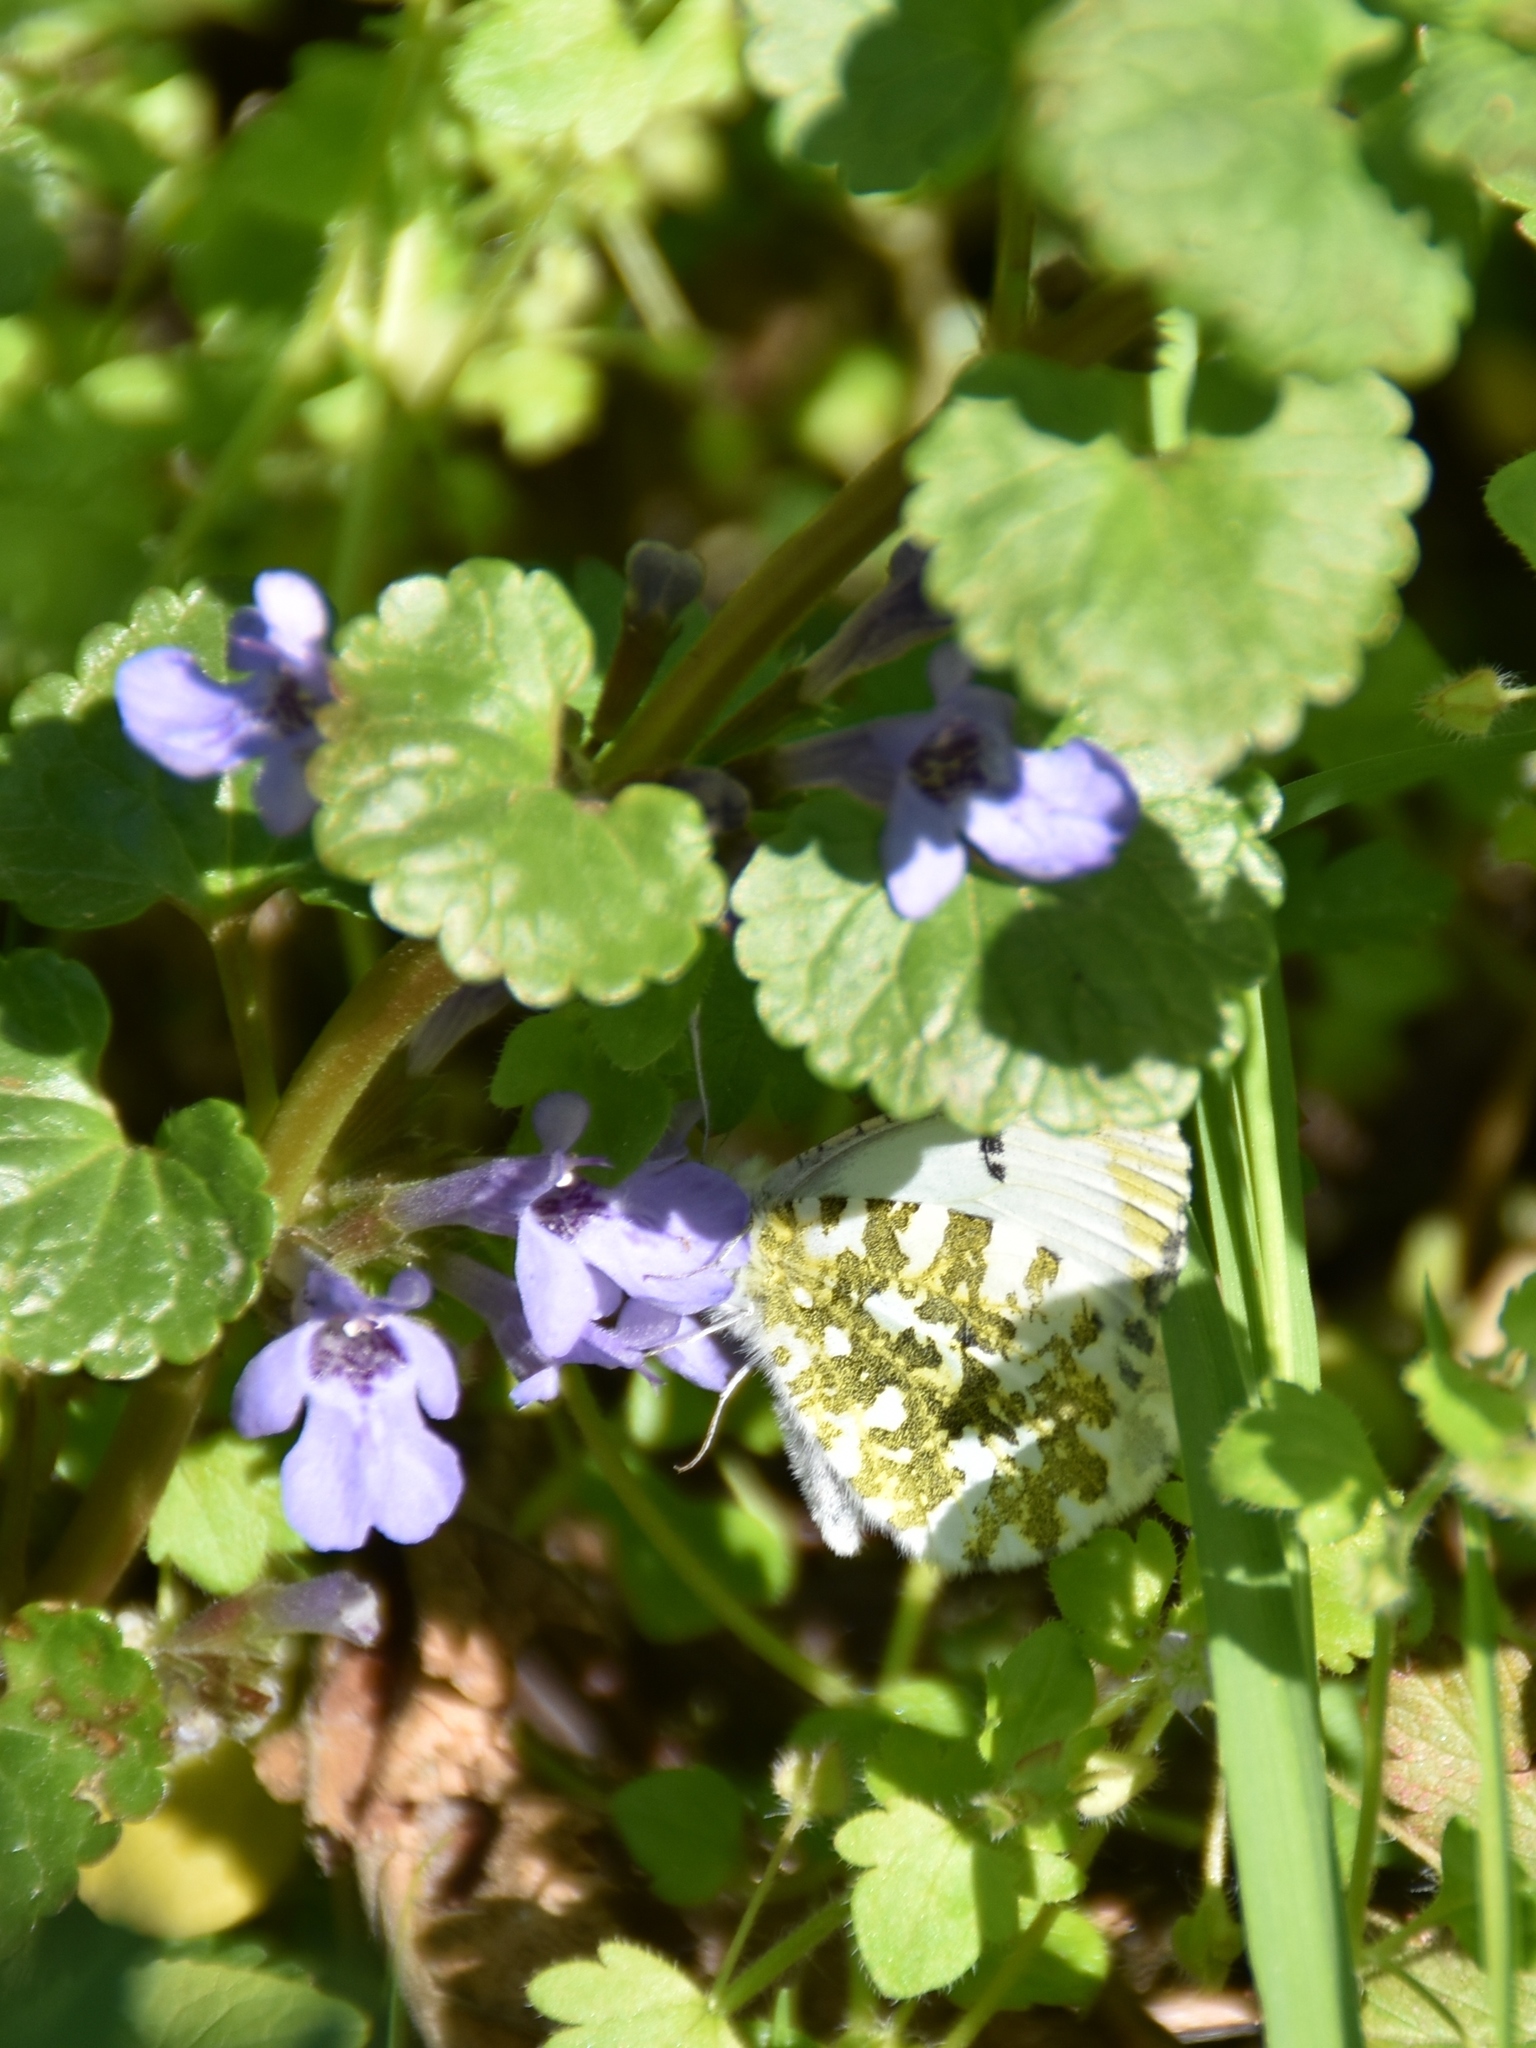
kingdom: Animalia
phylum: Arthropoda
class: Insecta
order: Lepidoptera
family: Pieridae
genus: Anthocharis
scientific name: Anthocharis cardamines
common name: Orange-tip
